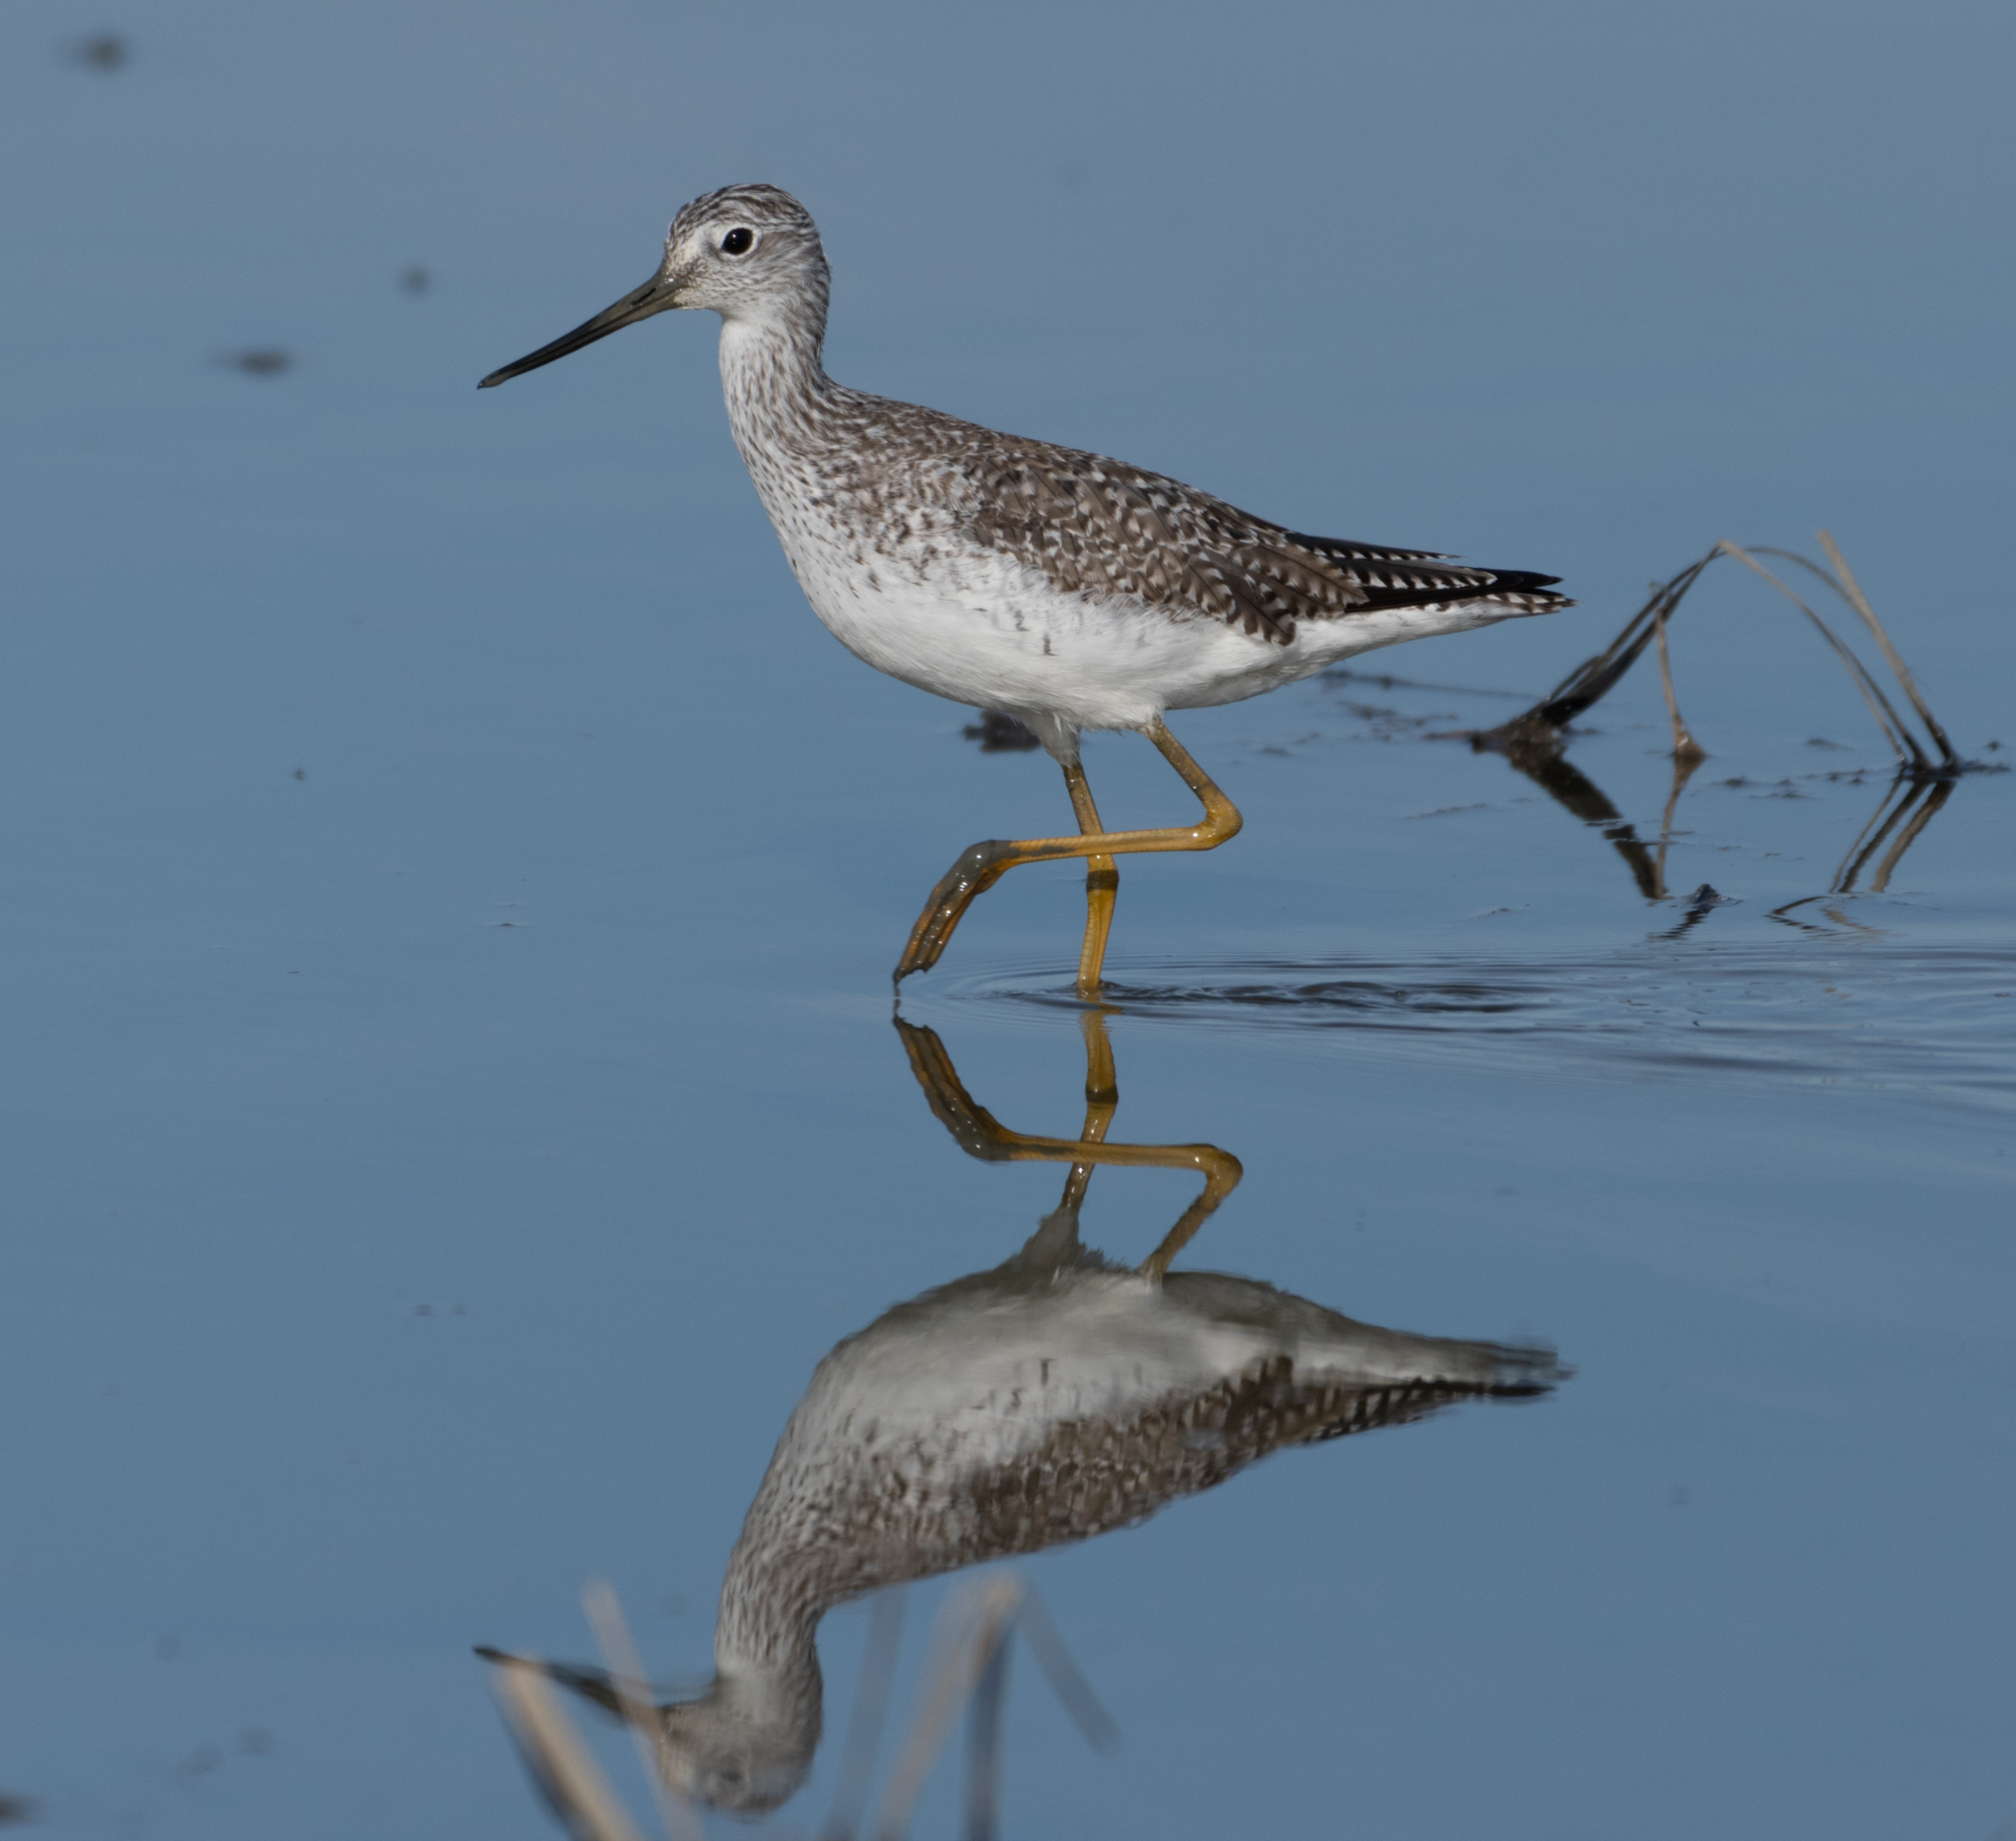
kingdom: Animalia
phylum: Chordata
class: Aves
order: Charadriiformes
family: Scolopacidae
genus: Tringa
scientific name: Tringa melanoleuca
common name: Greater yellowlegs
